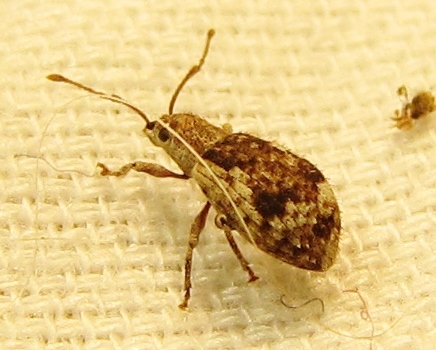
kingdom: Animalia
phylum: Arthropoda
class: Insecta
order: Coleoptera
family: Curculionidae
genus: Pseudoedophrys
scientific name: Pseudoedophrys hilleri
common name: Weevil
